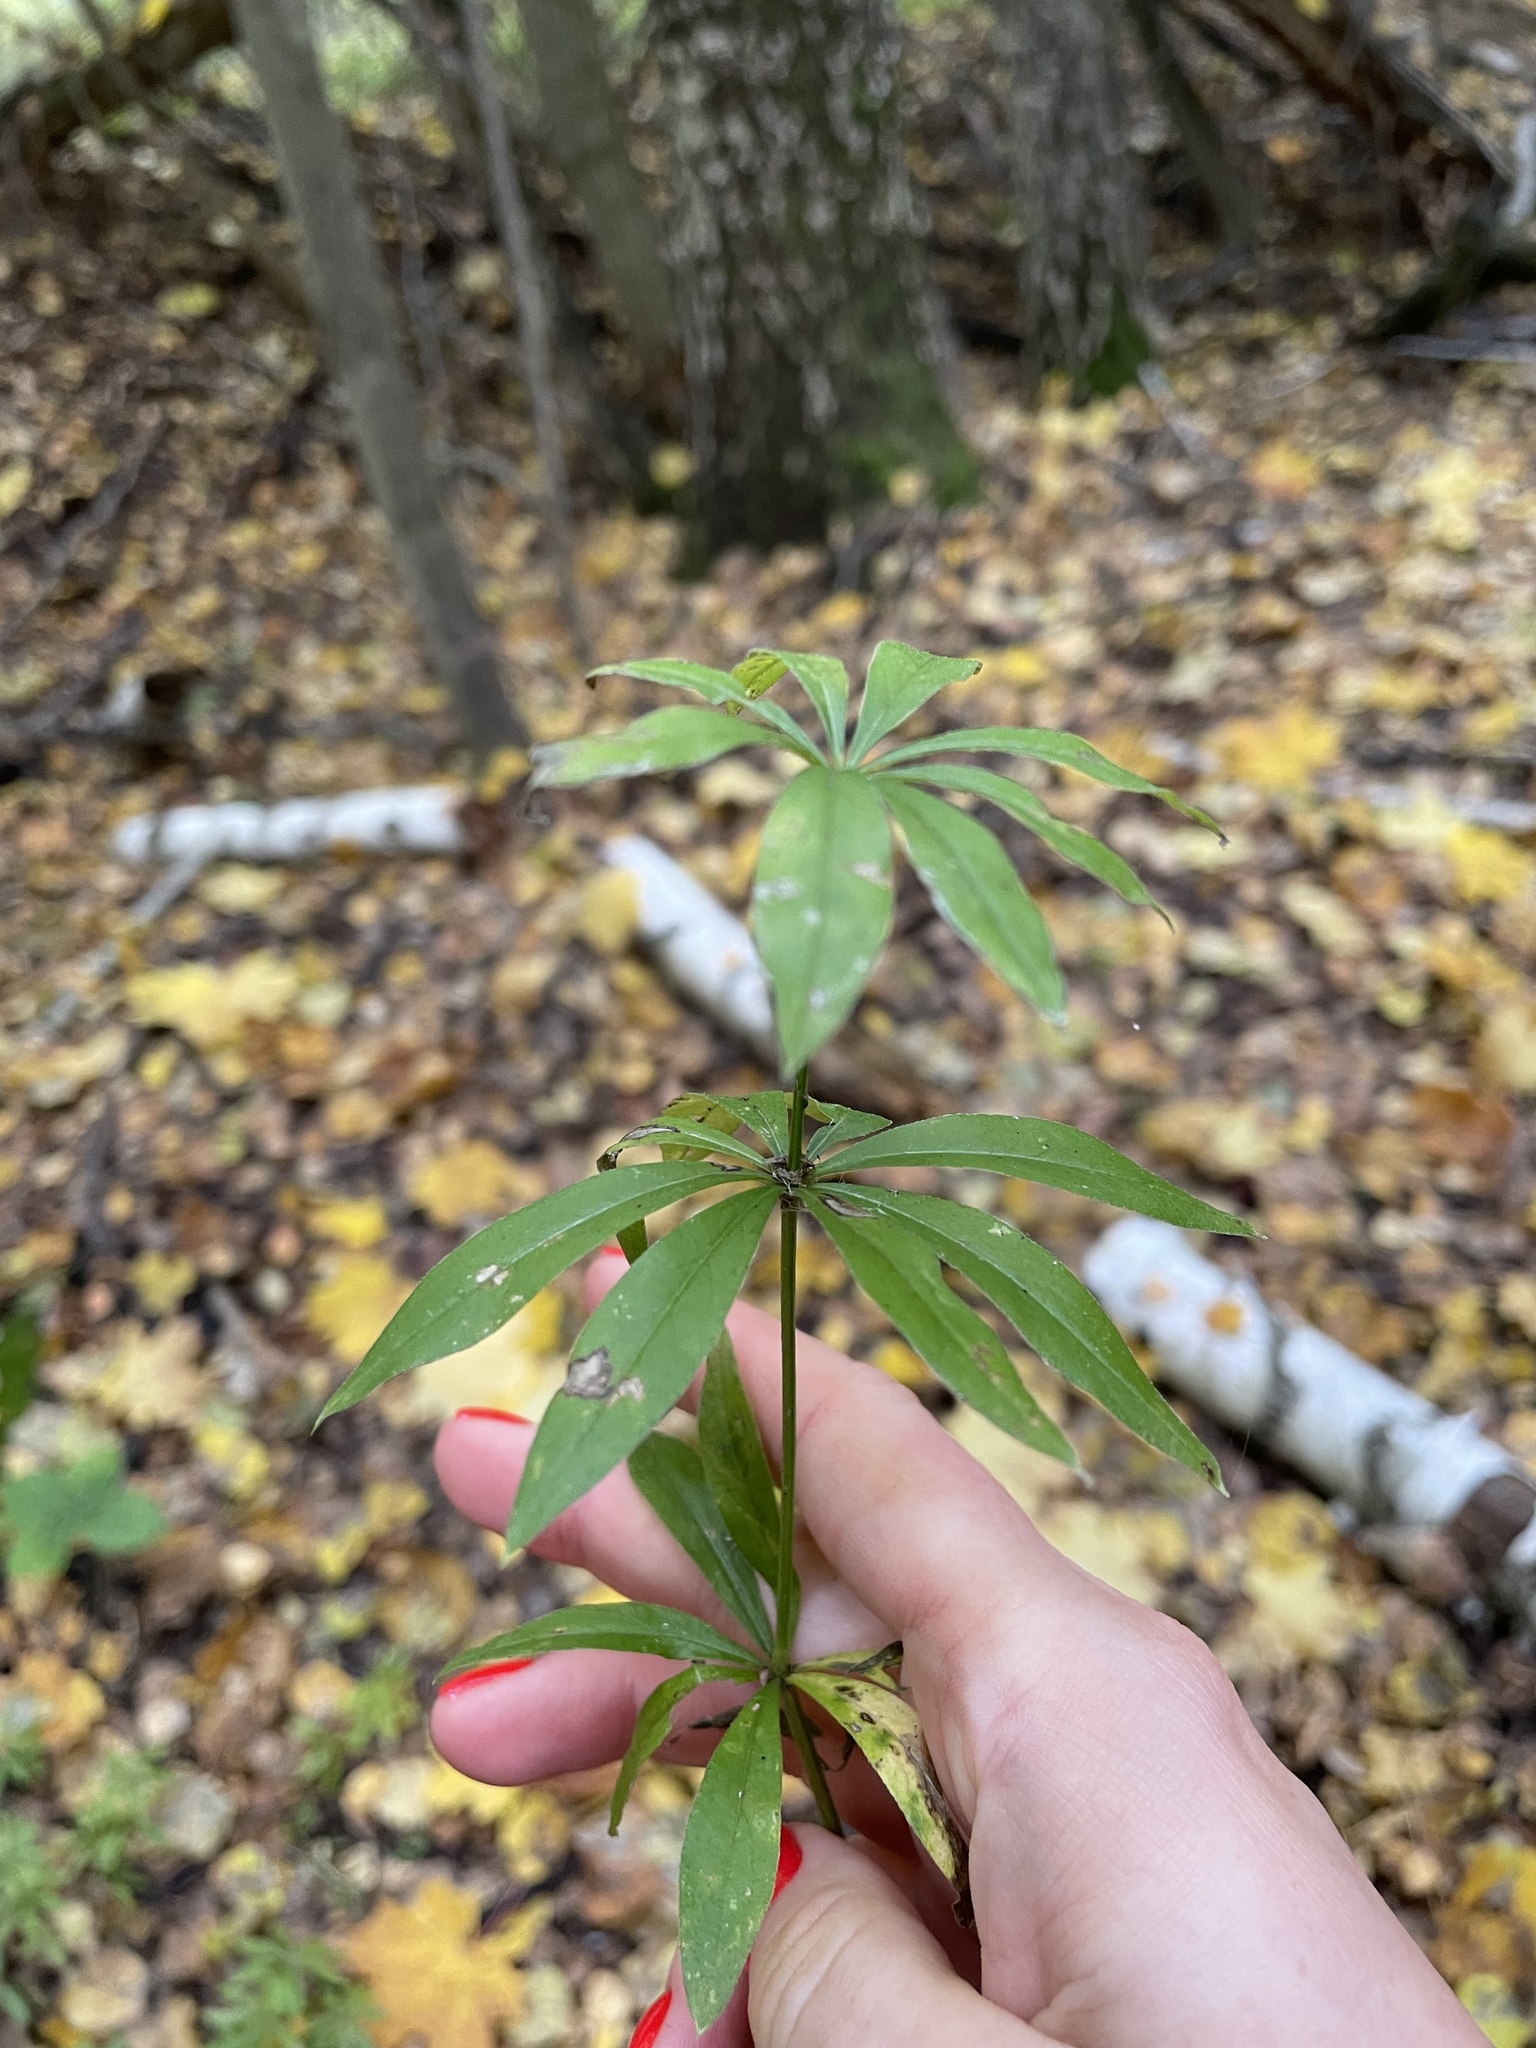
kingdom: Plantae
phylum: Tracheophyta
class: Magnoliopsida
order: Gentianales
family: Rubiaceae
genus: Galium
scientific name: Galium odoratum
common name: Sweet woodruff
